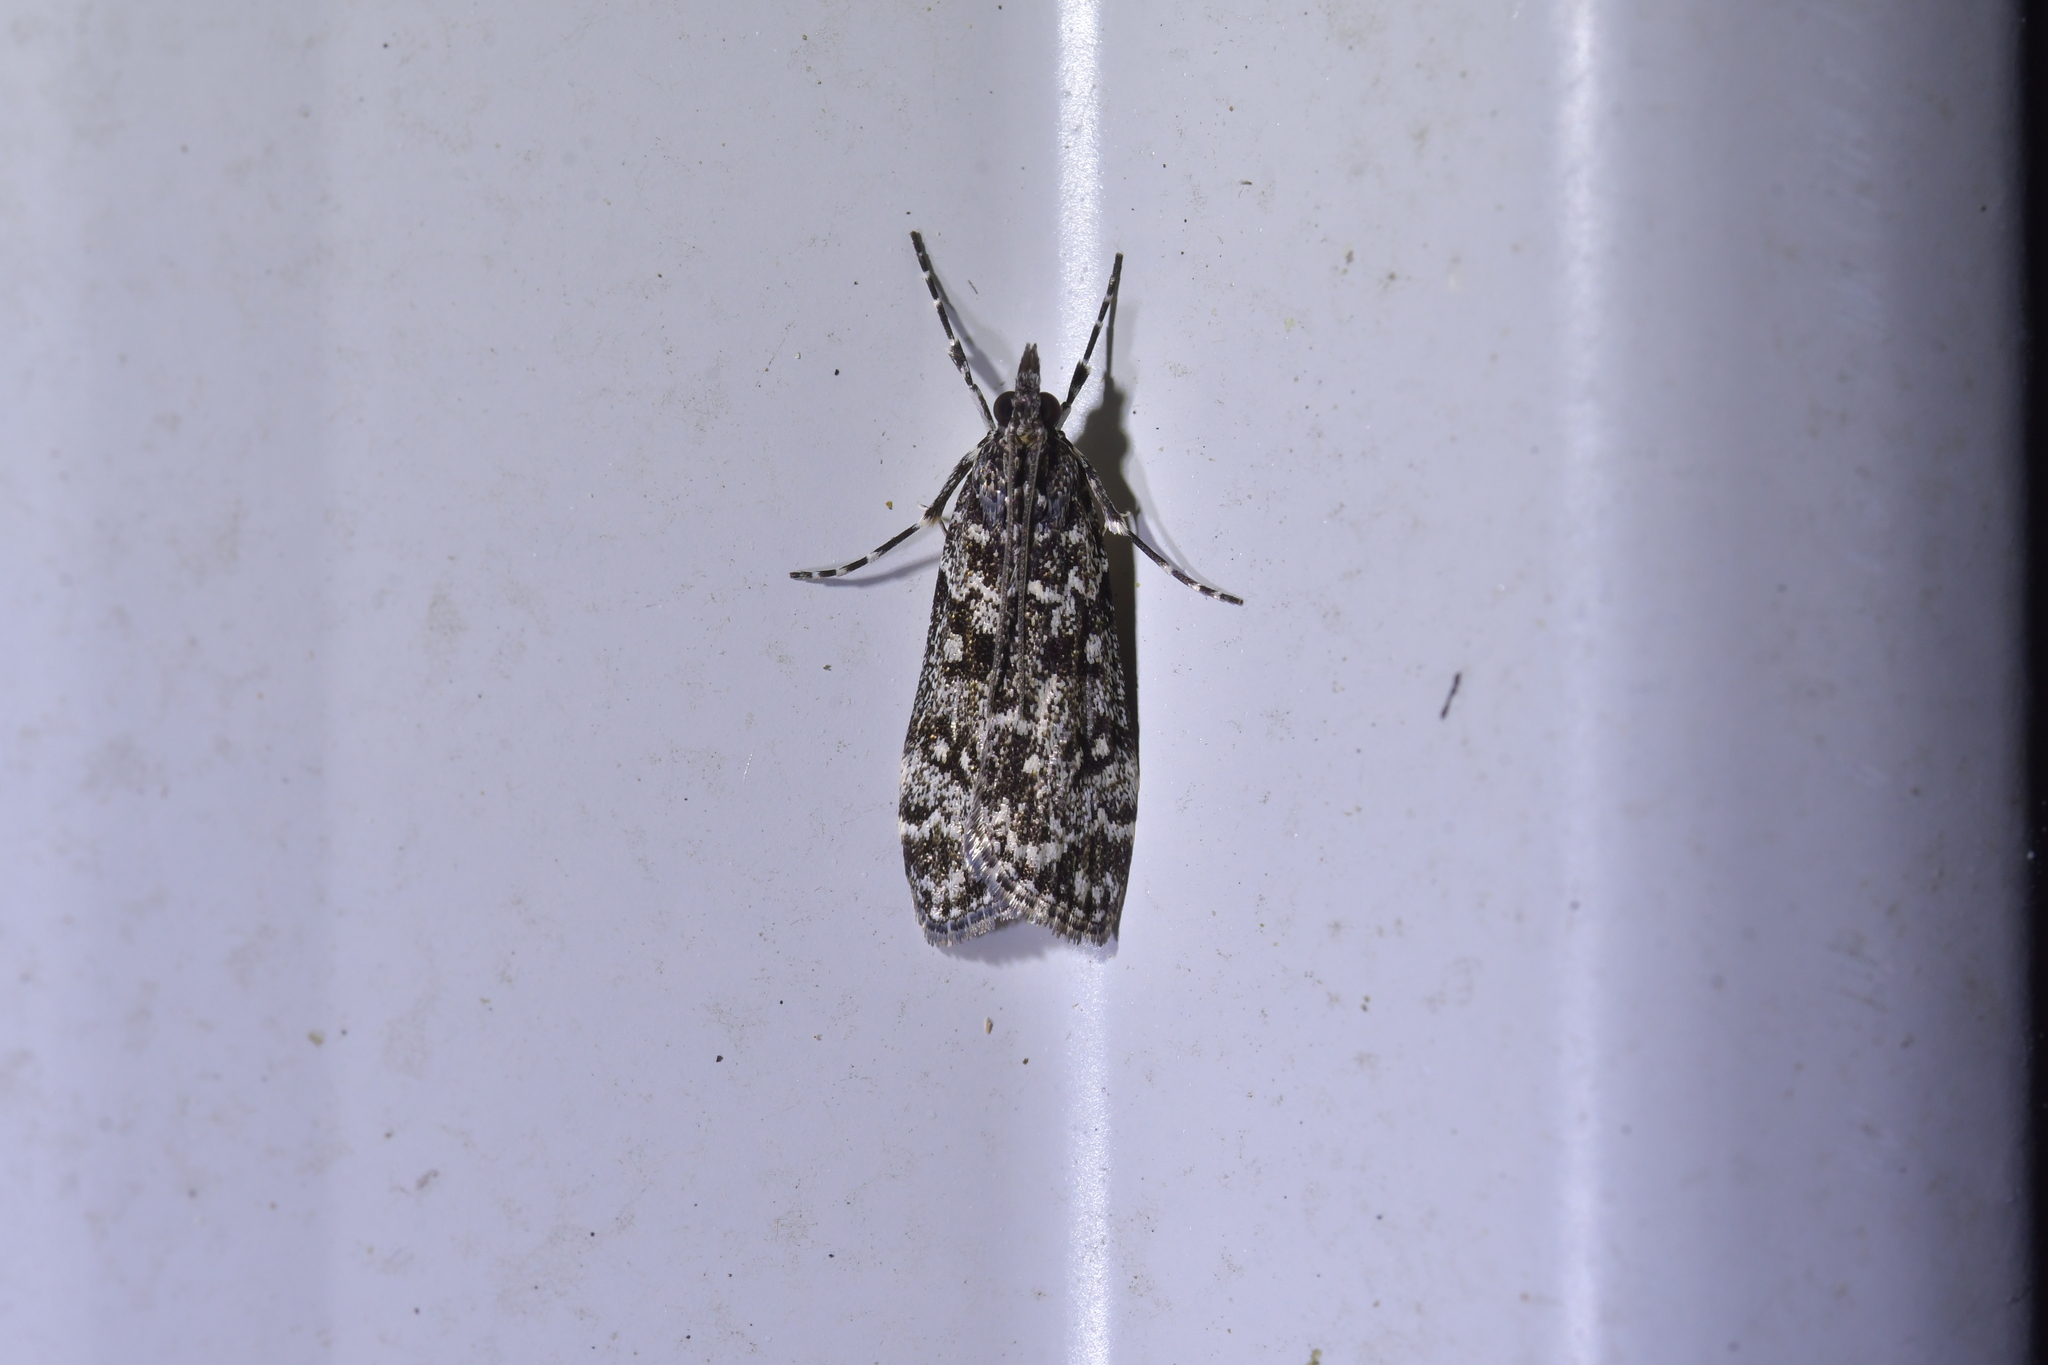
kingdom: Animalia
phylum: Arthropoda
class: Insecta
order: Lepidoptera
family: Crambidae
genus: Eudonia
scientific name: Eudonia philerga
